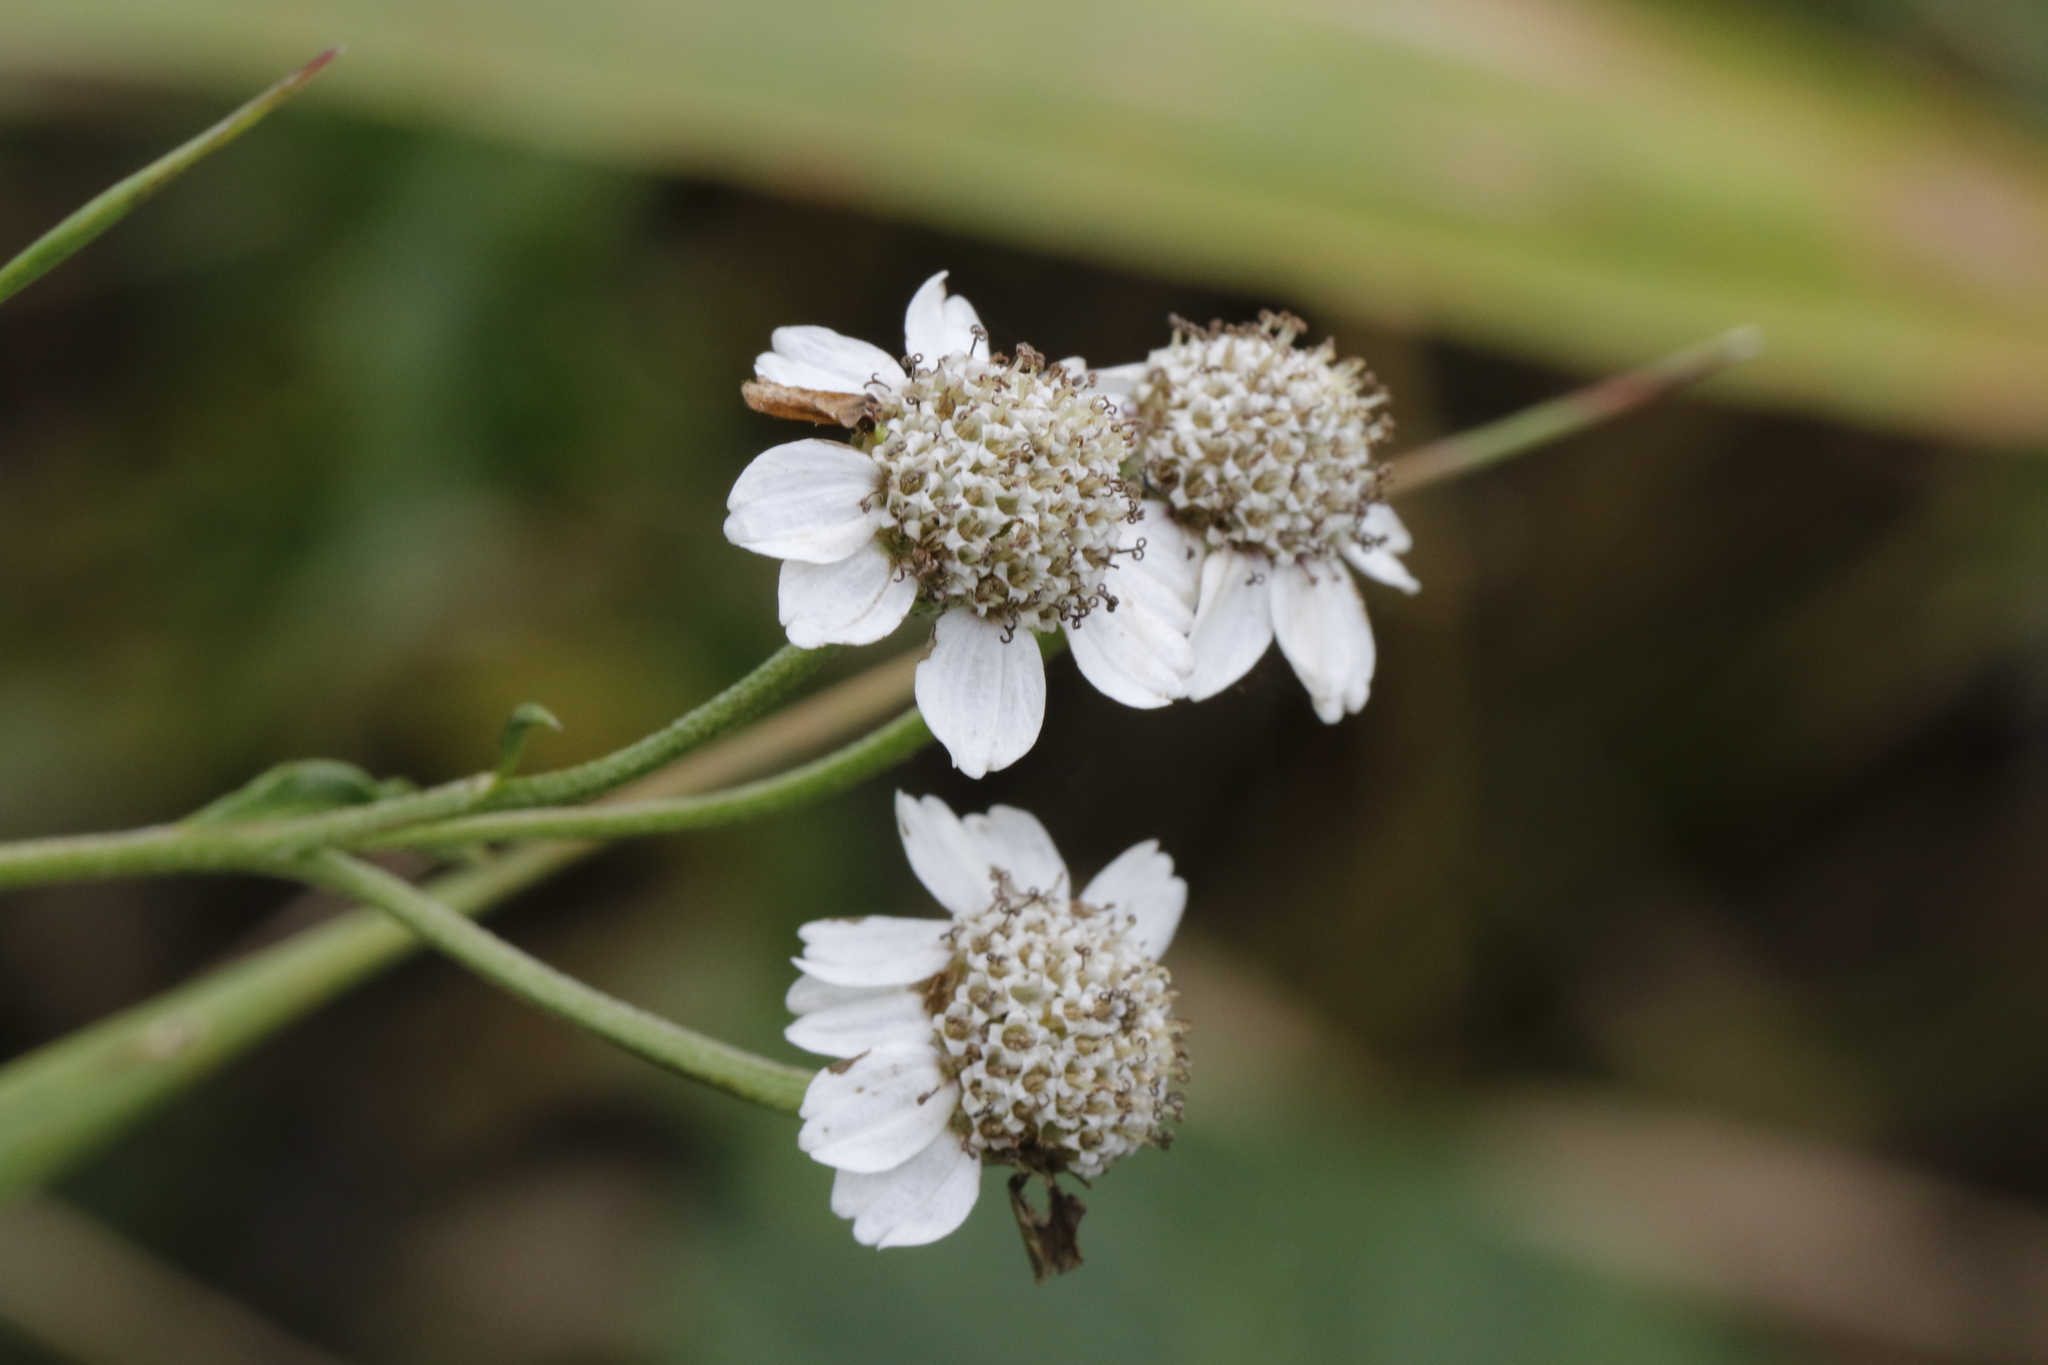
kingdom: Plantae
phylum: Tracheophyta
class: Magnoliopsida
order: Asterales
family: Asteraceae
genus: Achillea
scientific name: Achillea ptarmica
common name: Sneezeweed
